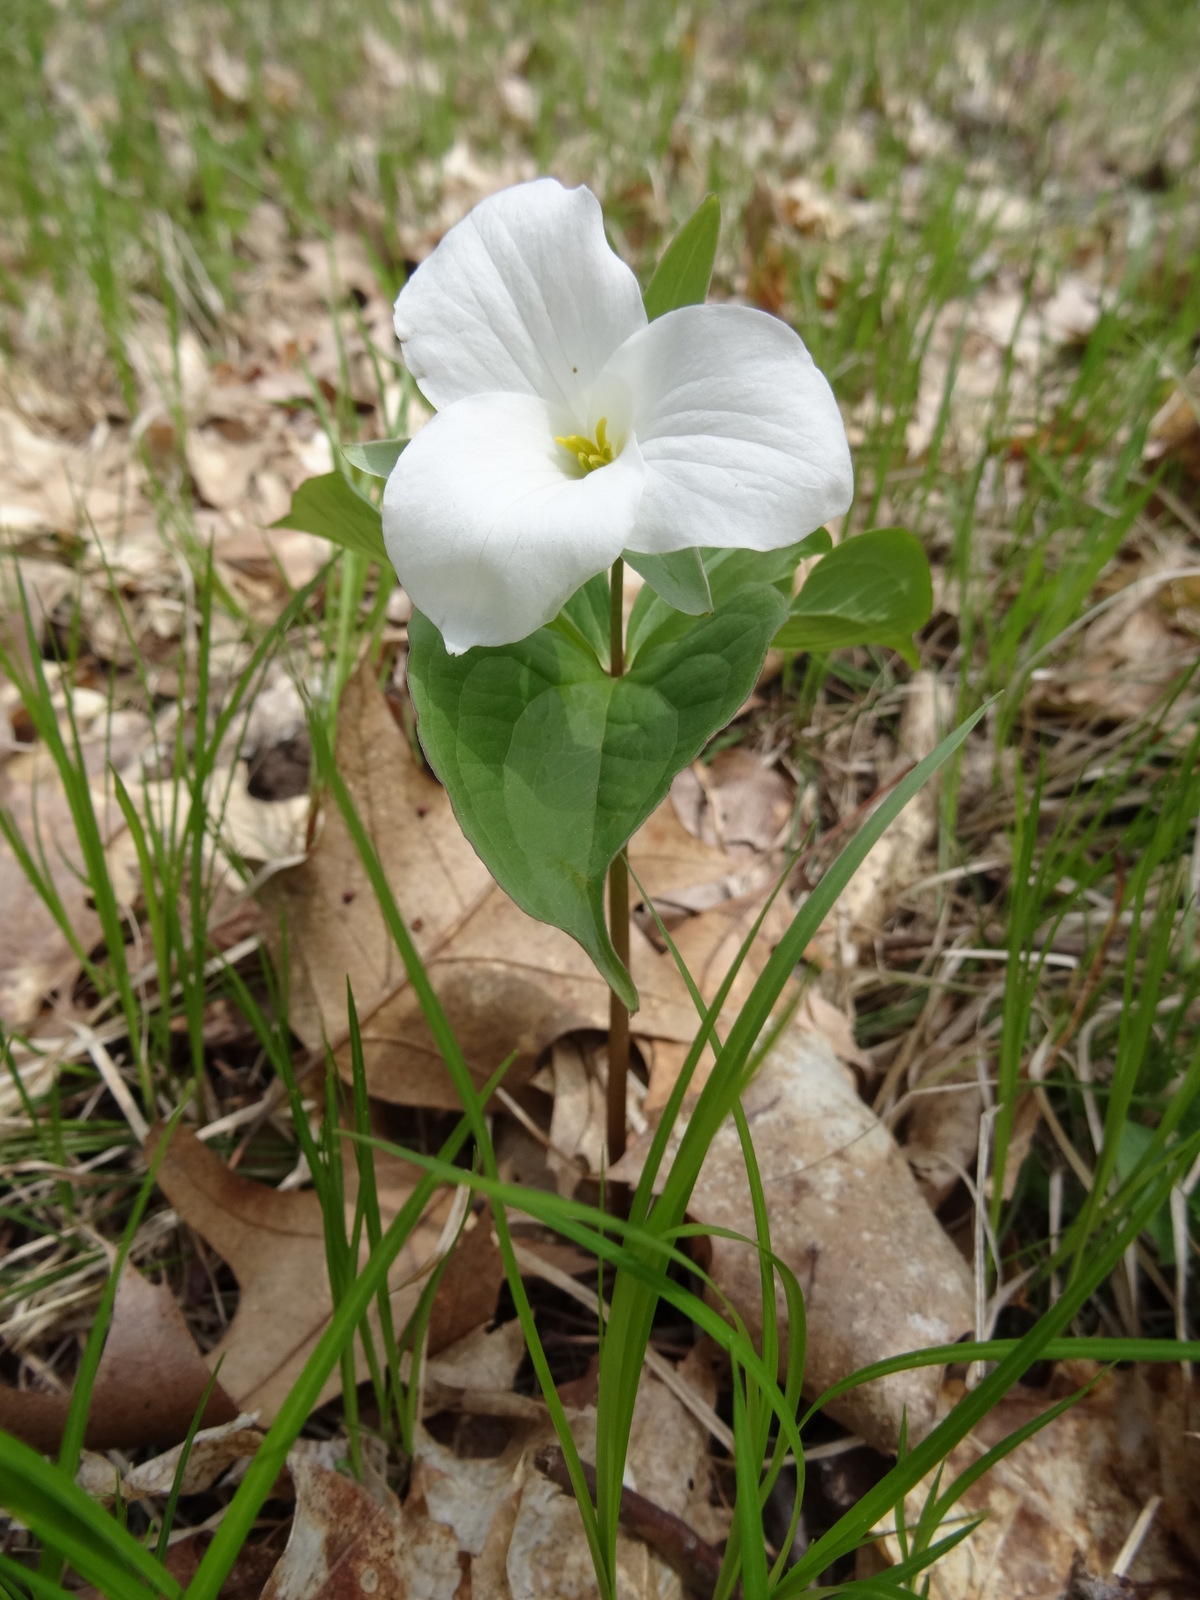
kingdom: Plantae
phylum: Tracheophyta
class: Liliopsida
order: Liliales
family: Melanthiaceae
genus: Trillium
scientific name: Trillium grandiflorum
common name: Great white trillium
